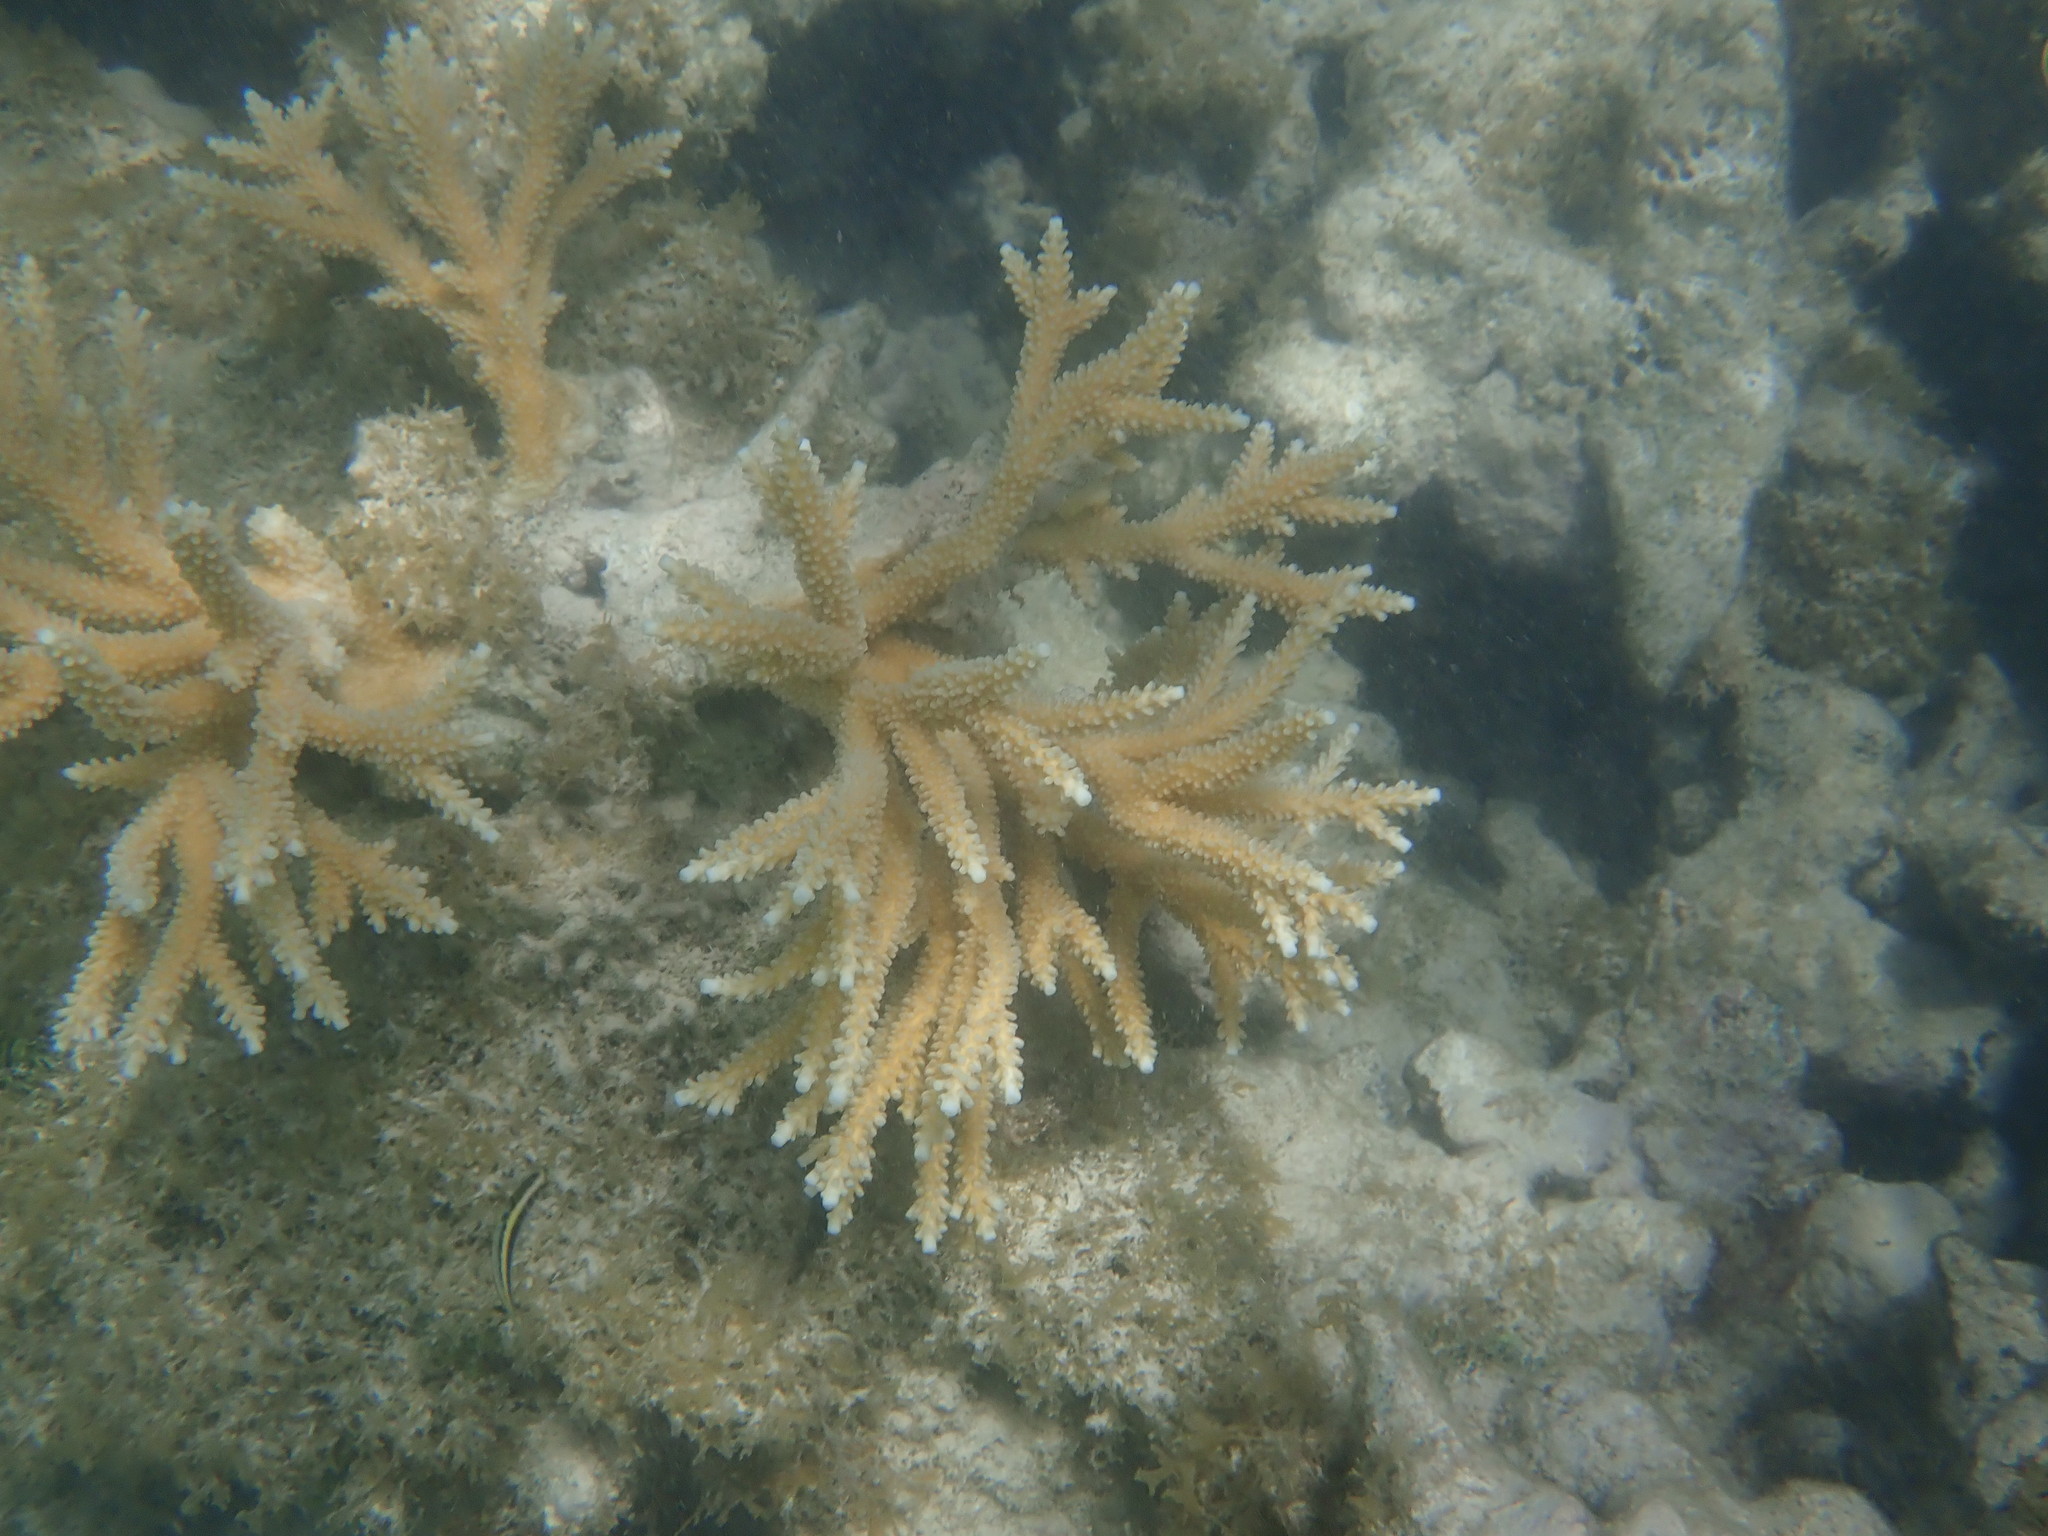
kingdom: Animalia
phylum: Cnidaria
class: Anthozoa
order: Scleractinia
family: Acroporidae
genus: Acropora
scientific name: Acropora cervicornis
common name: Staghorn coral
